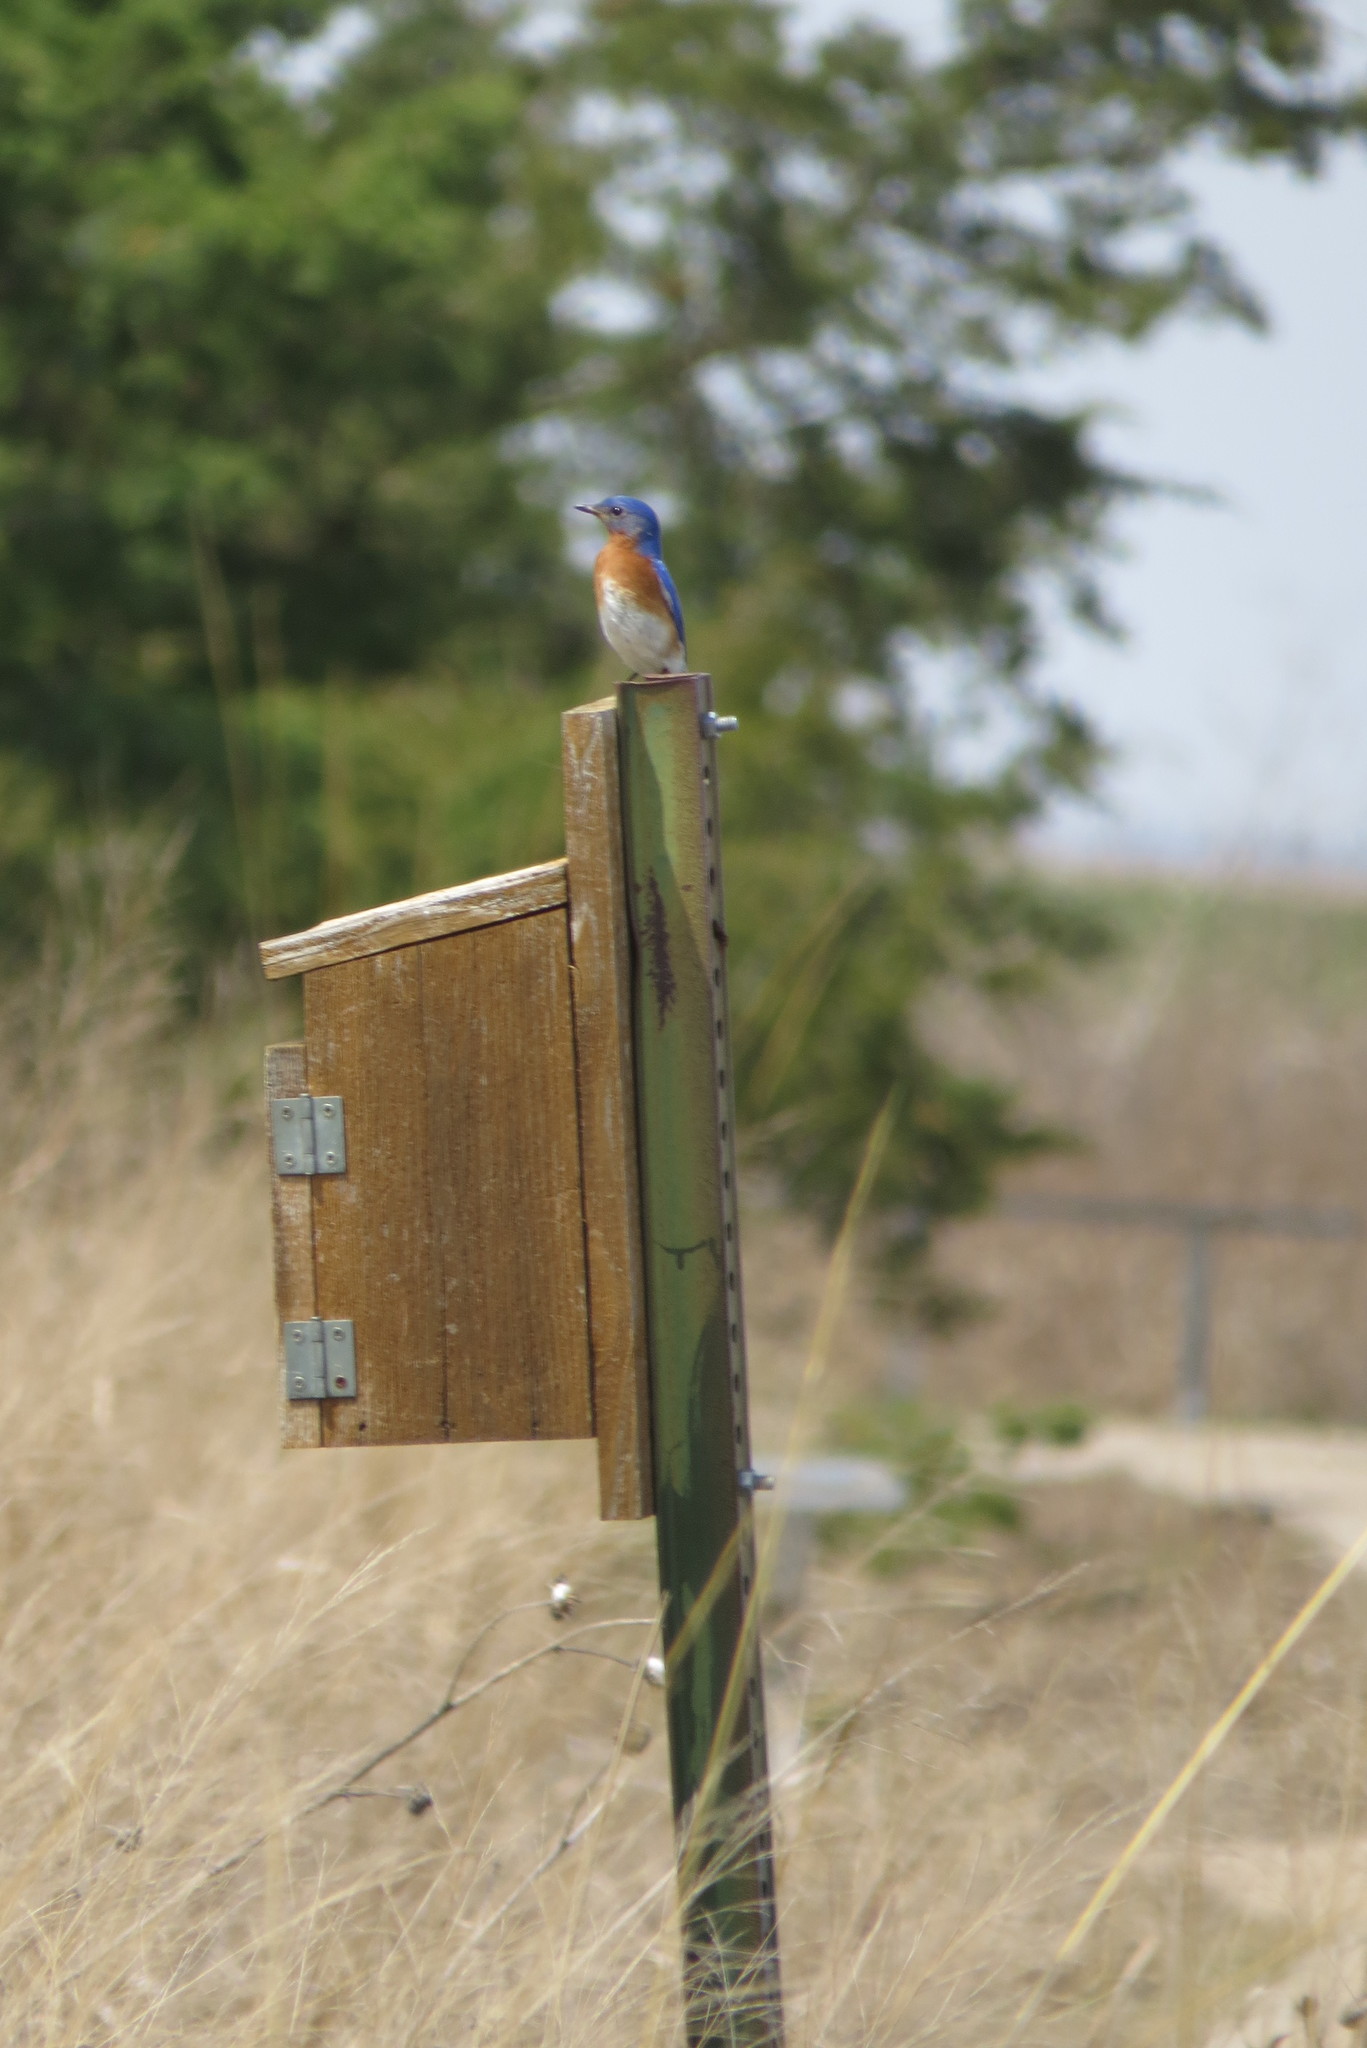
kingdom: Animalia
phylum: Chordata
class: Aves
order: Passeriformes
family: Turdidae
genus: Sialia
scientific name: Sialia sialis
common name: Eastern bluebird
